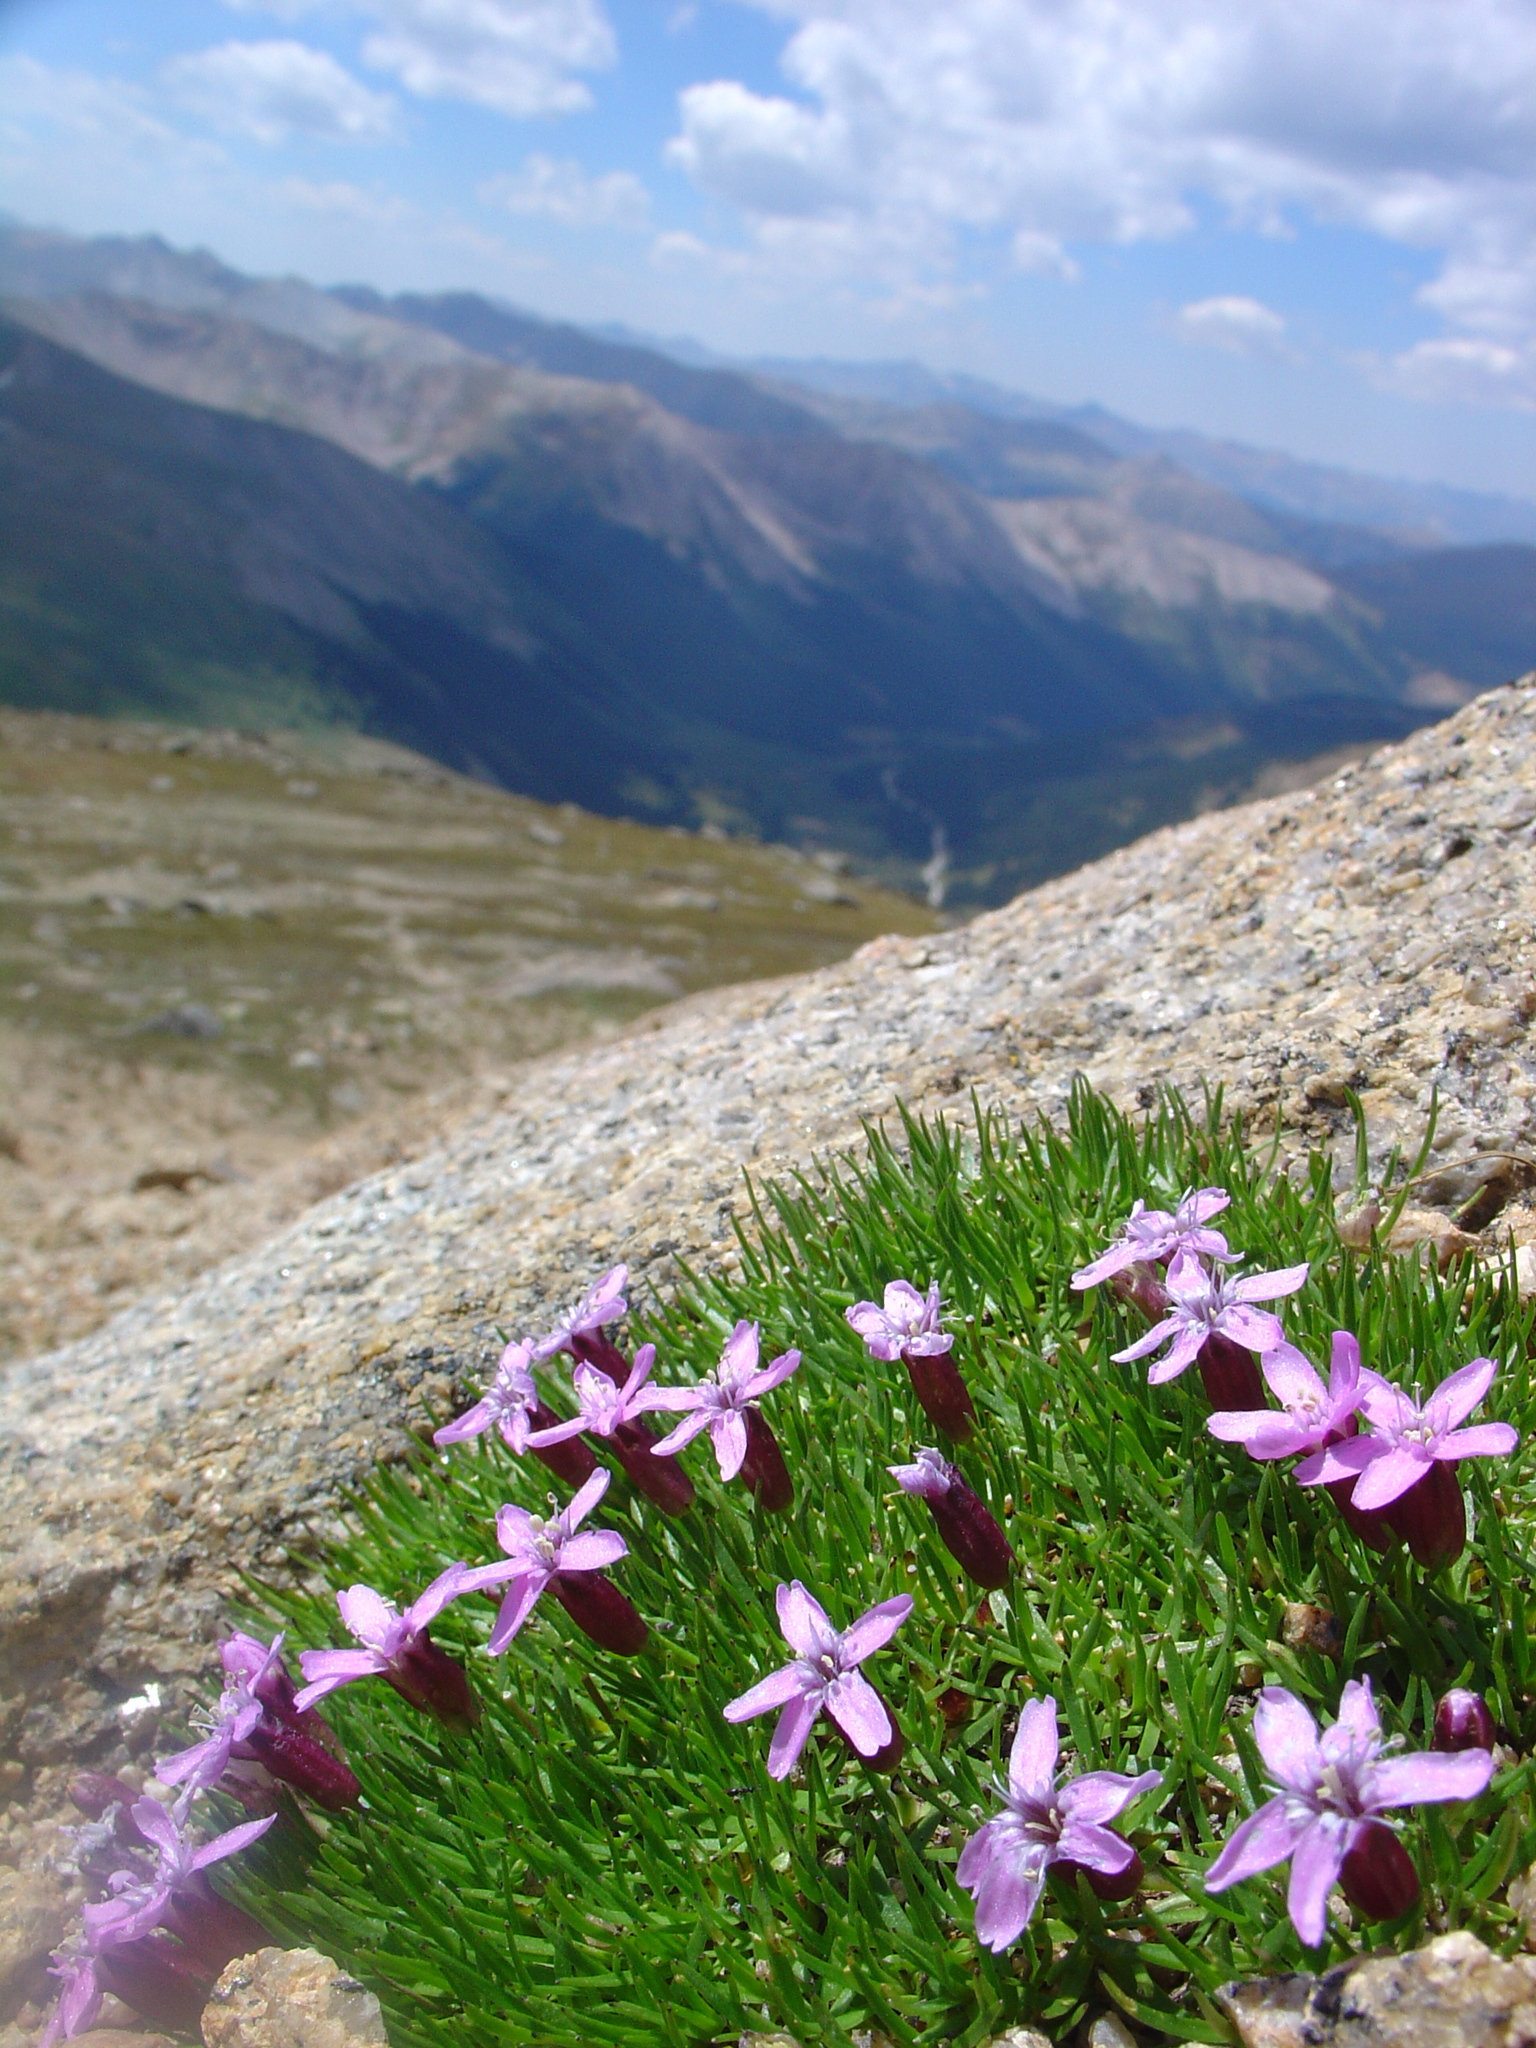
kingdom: Plantae
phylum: Tracheophyta
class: Magnoliopsida
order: Caryophyllales
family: Caryophyllaceae
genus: Silene
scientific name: Silene acaulis
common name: Moss campion
